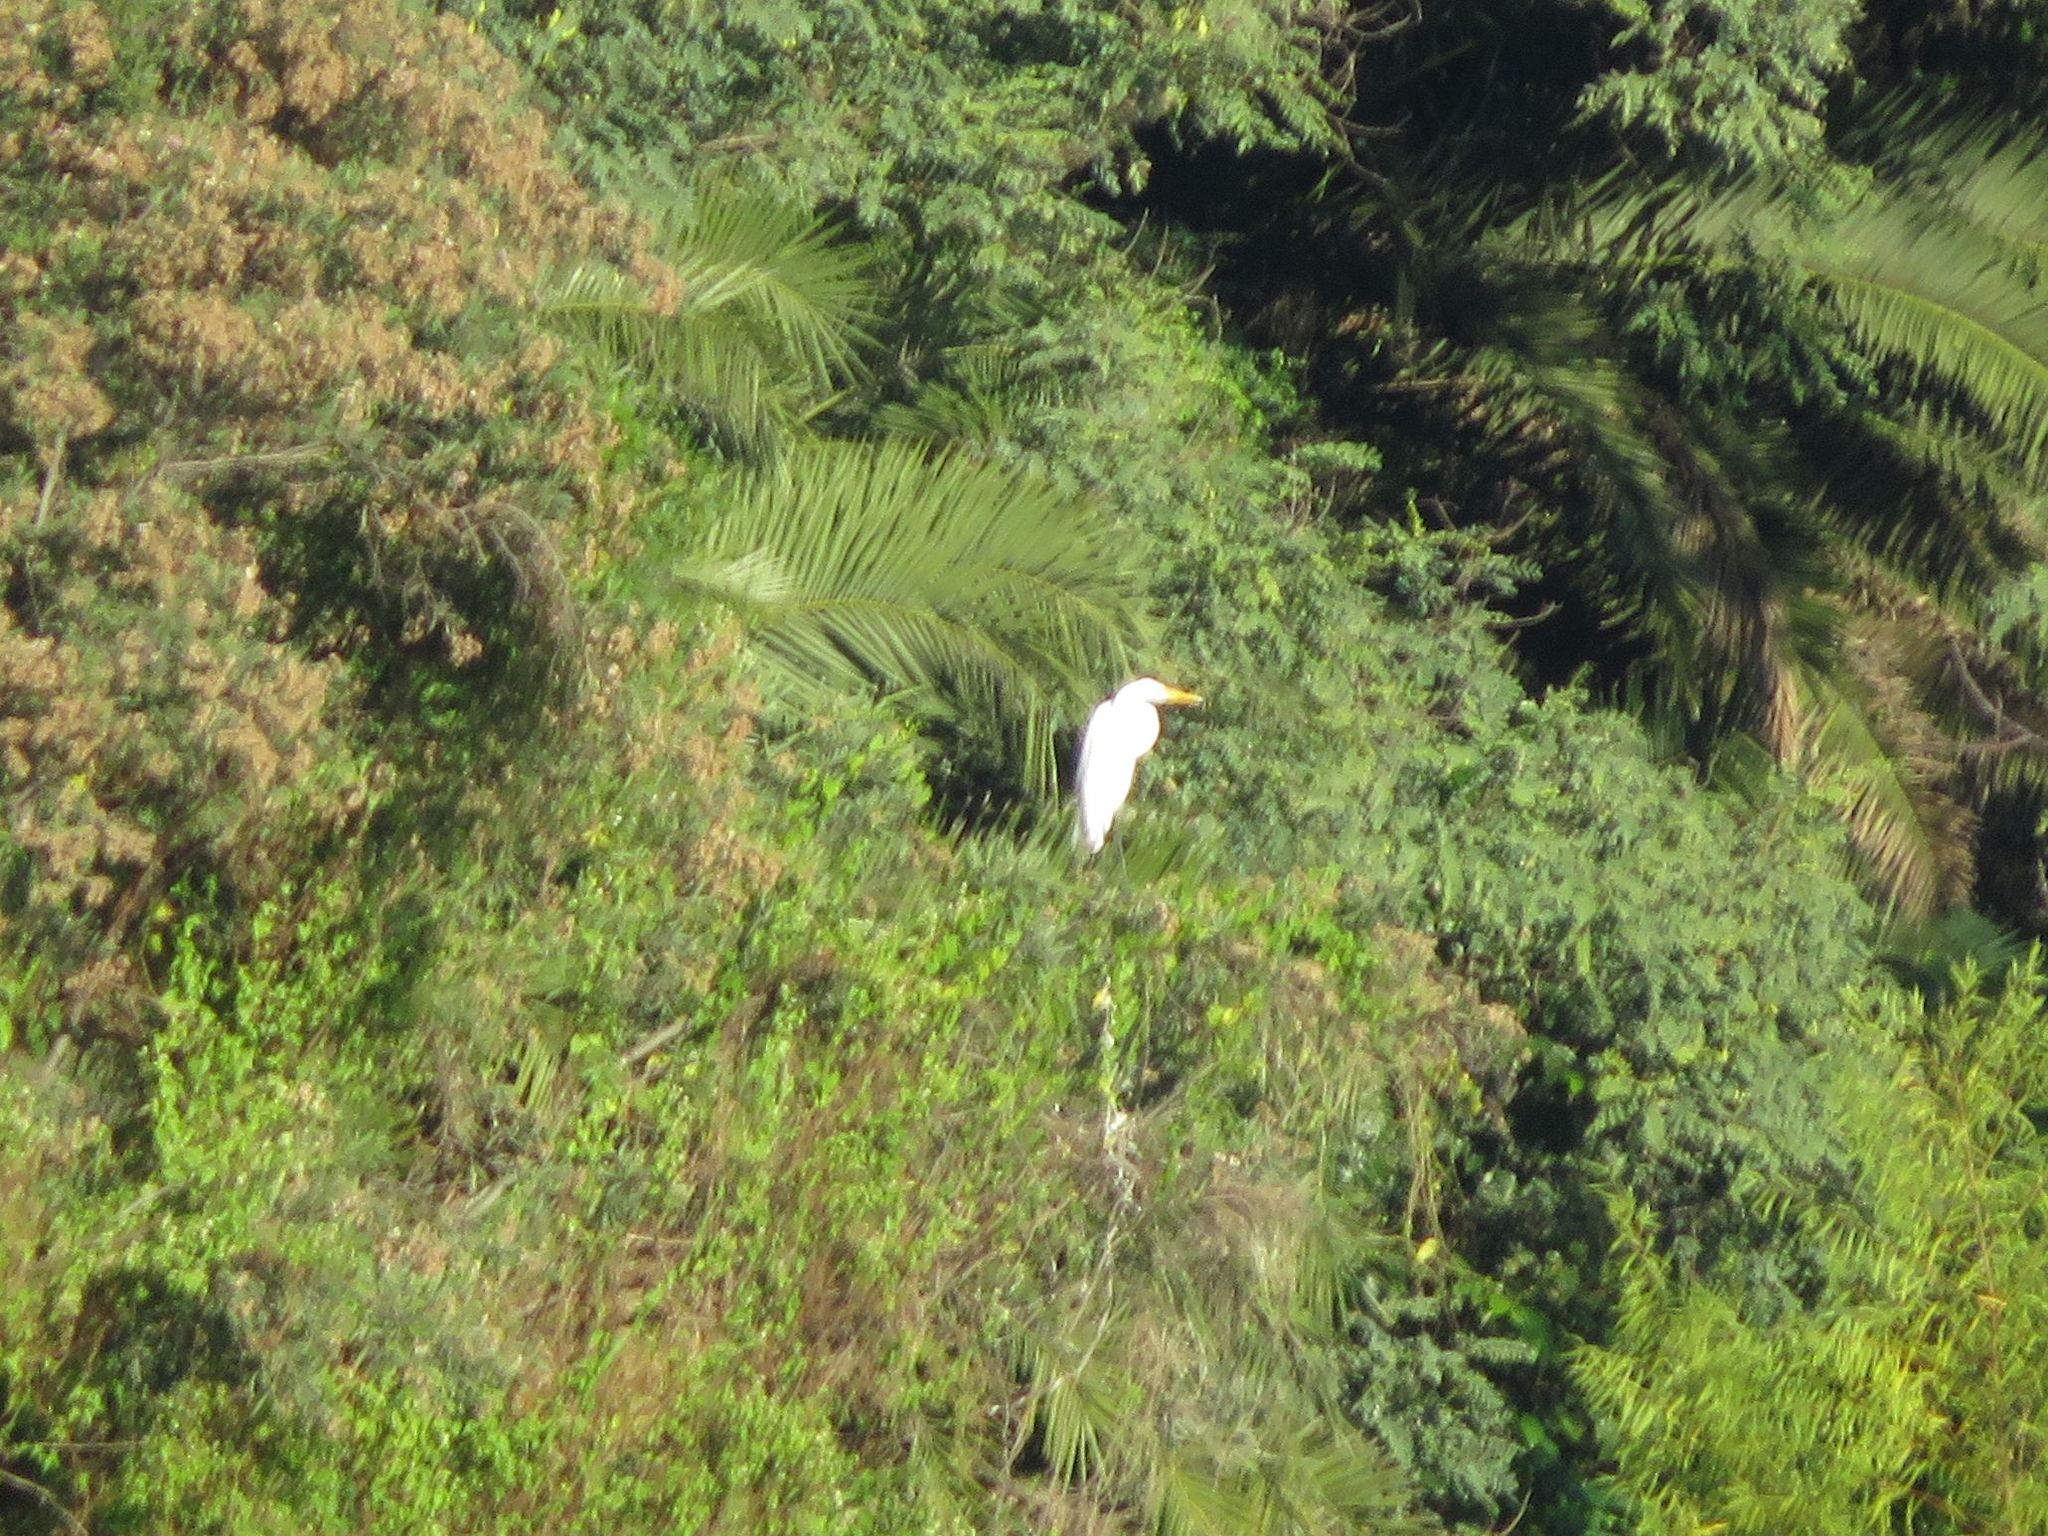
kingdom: Animalia
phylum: Chordata
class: Aves
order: Pelecaniformes
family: Ardeidae
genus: Ardea
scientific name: Ardea alba
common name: Great egret
